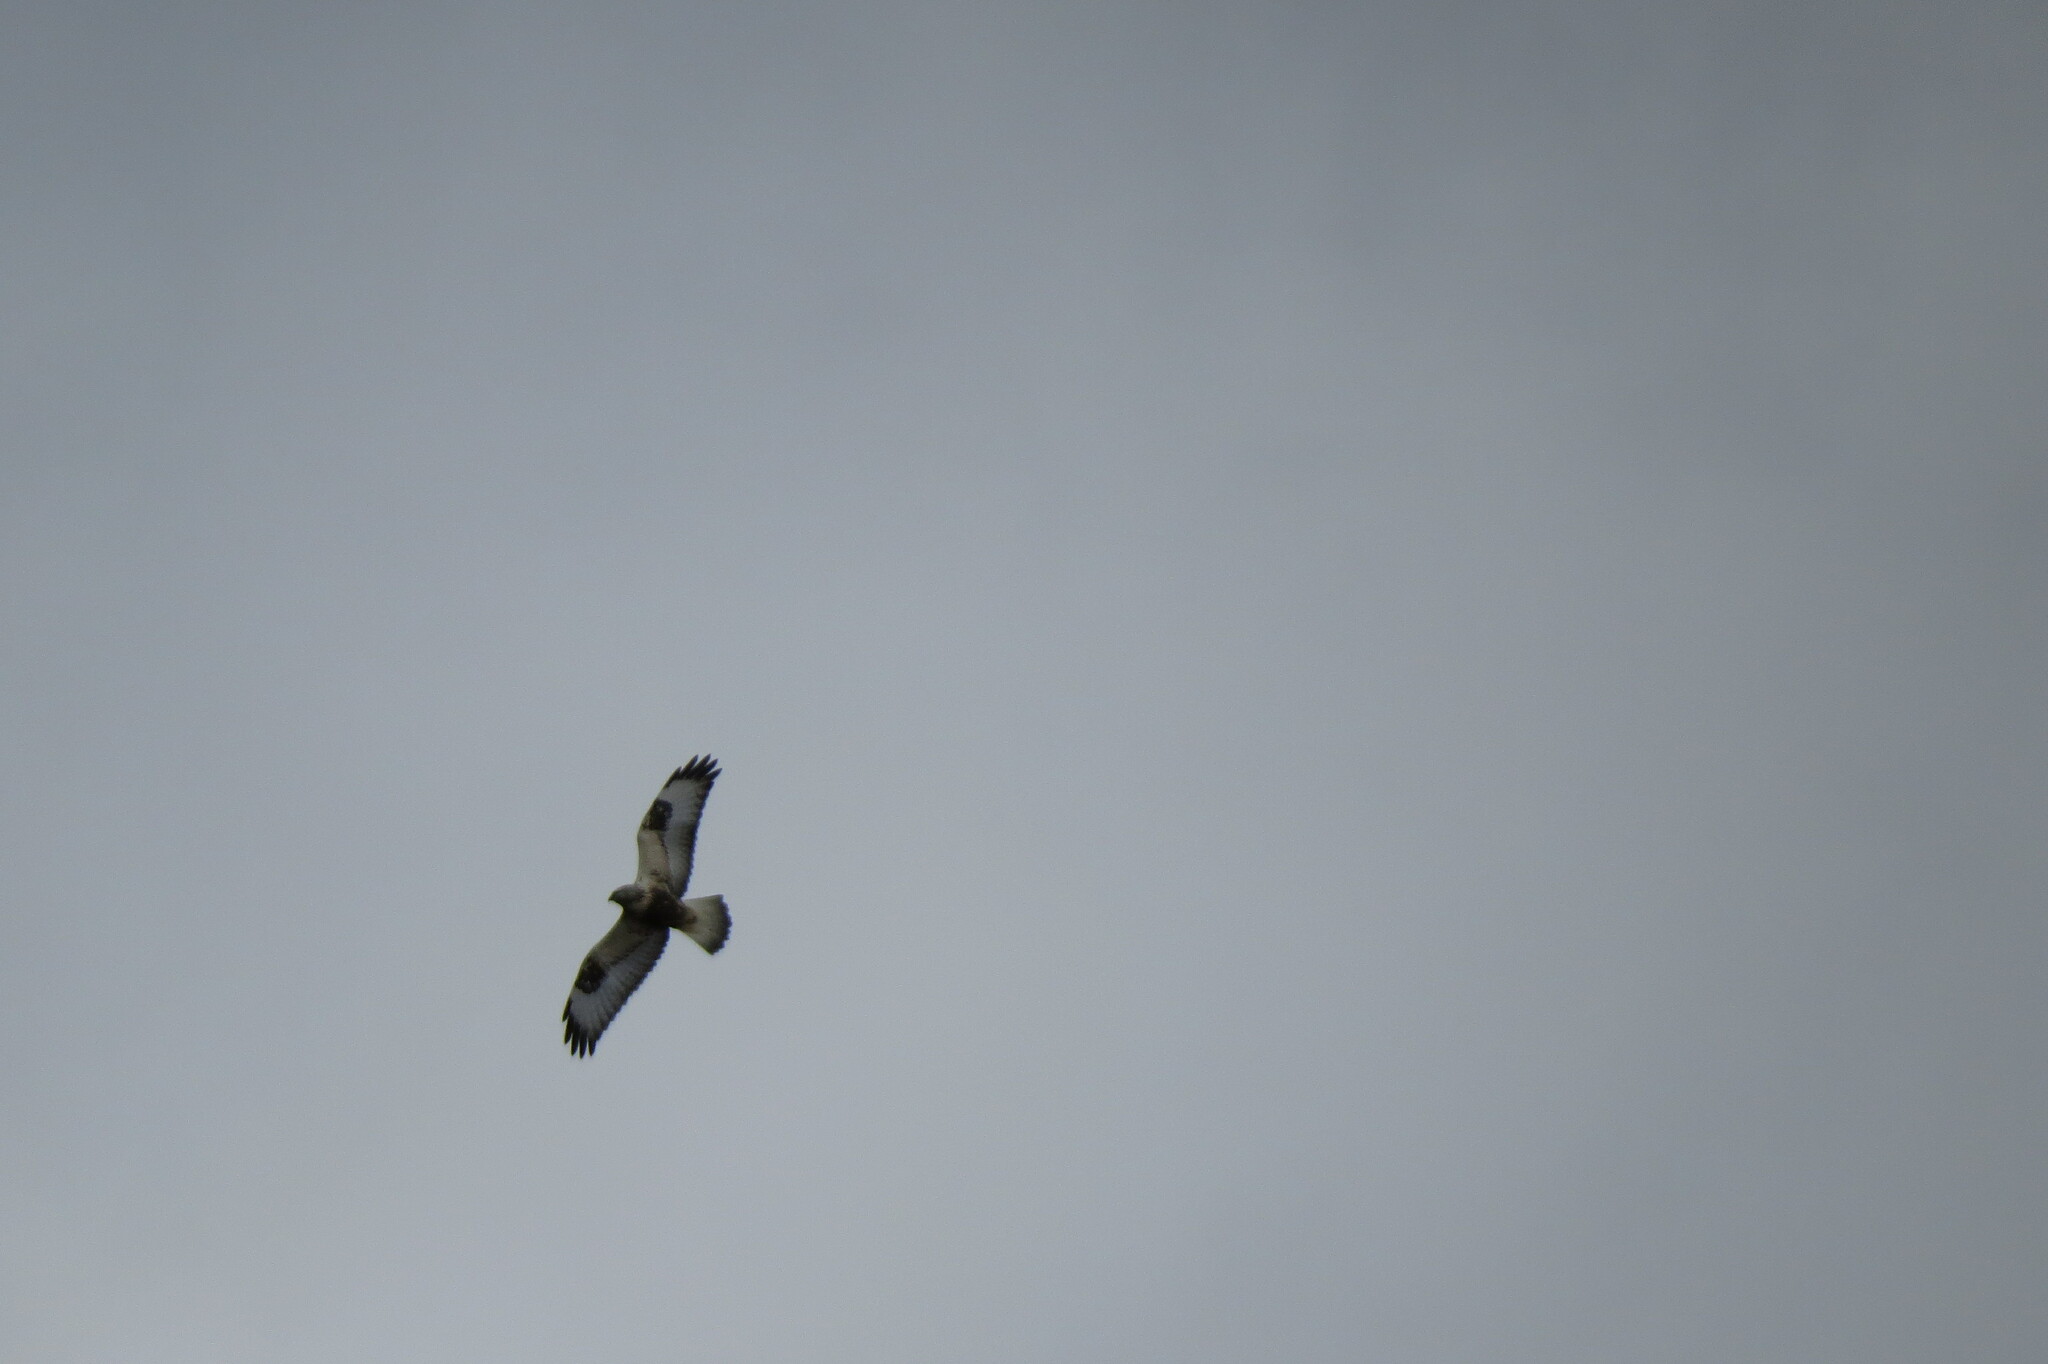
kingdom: Animalia
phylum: Chordata
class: Aves
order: Accipitriformes
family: Accipitridae
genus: Buteo
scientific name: Buteo lagopus
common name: Rough-legged buzzard
